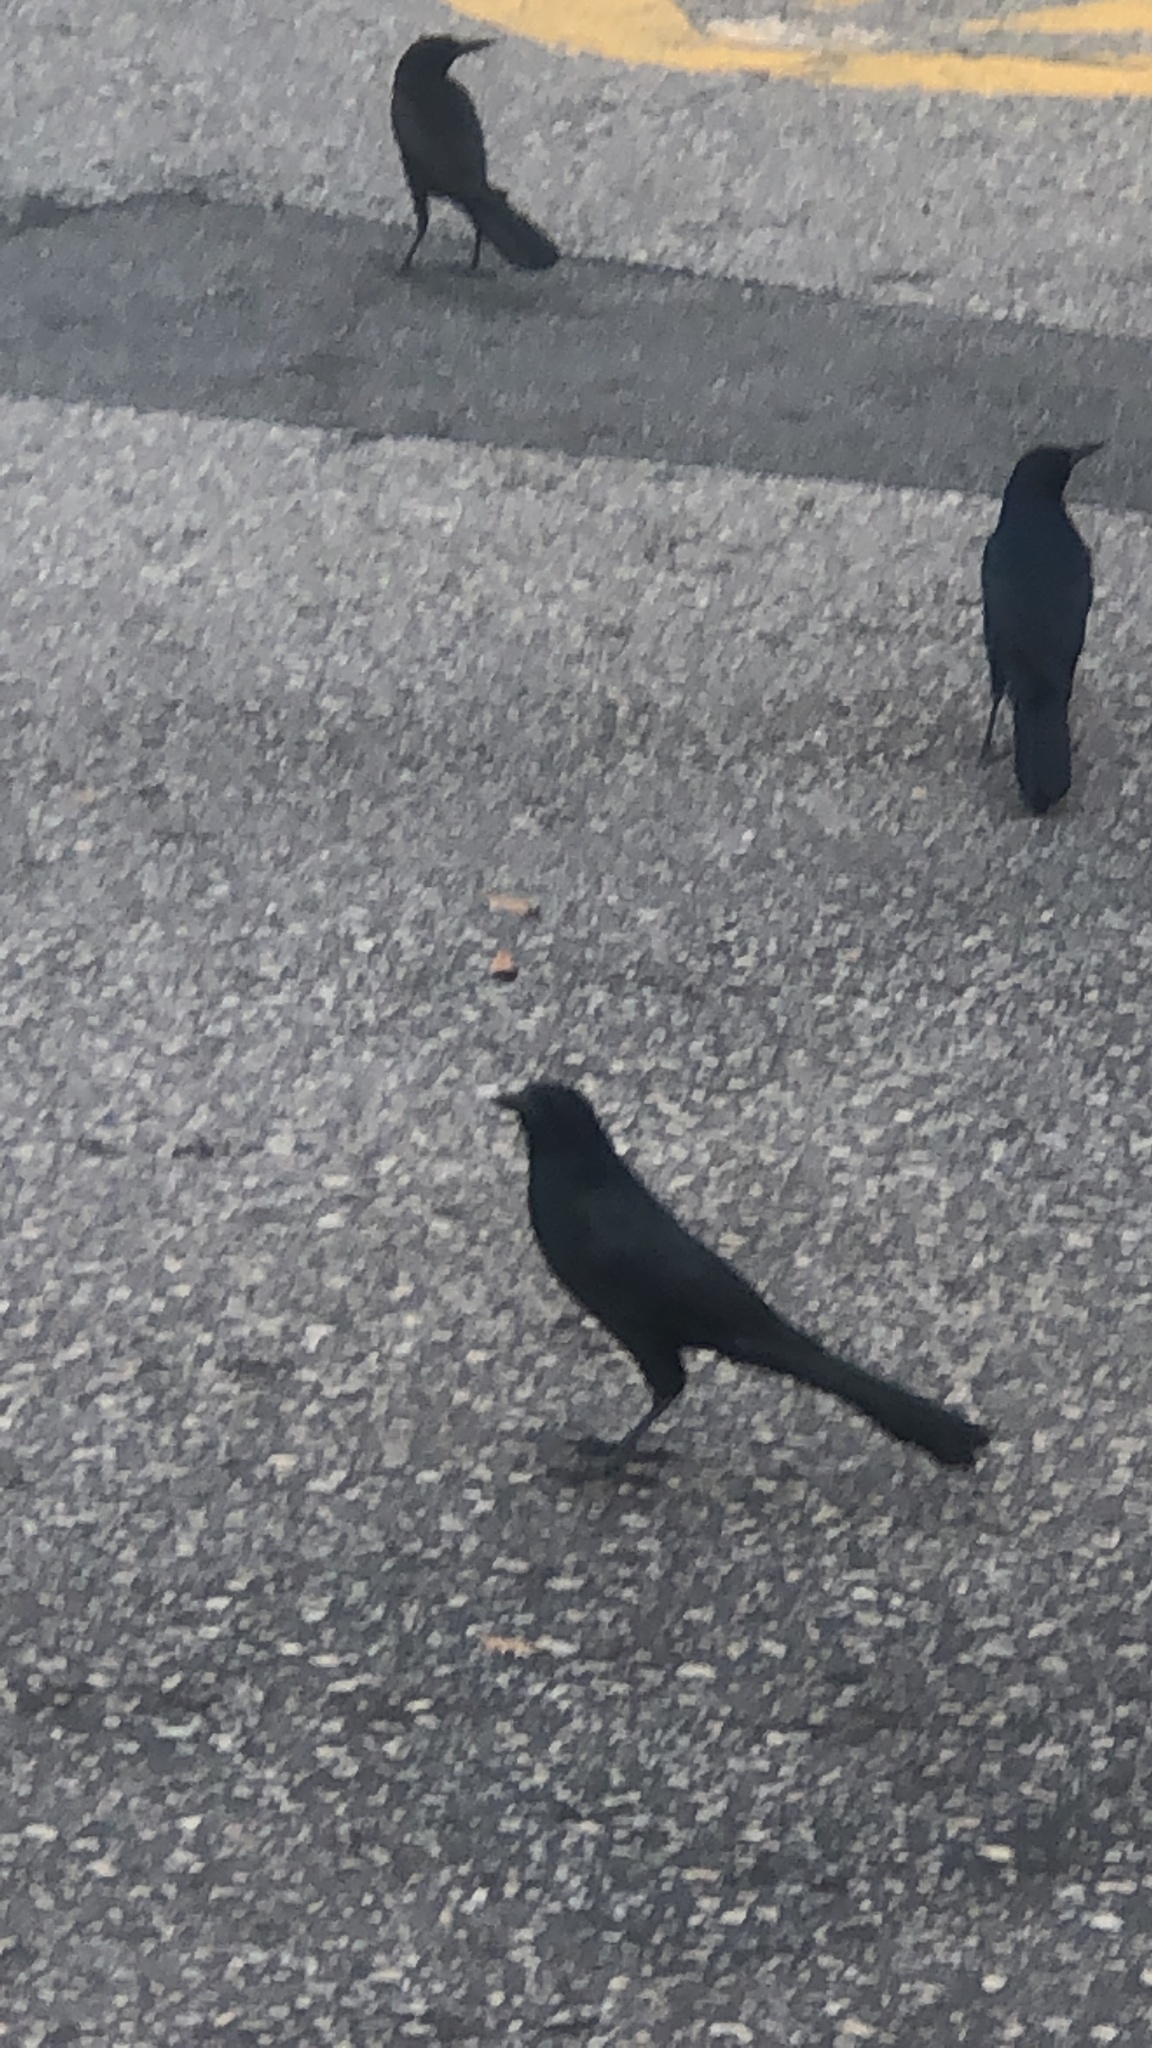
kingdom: Animalia
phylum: Chordata
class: Aves
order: Passeriformes
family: Icteridae
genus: Quiscalus
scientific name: Quiscalus major
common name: Boat-tailed grackle
